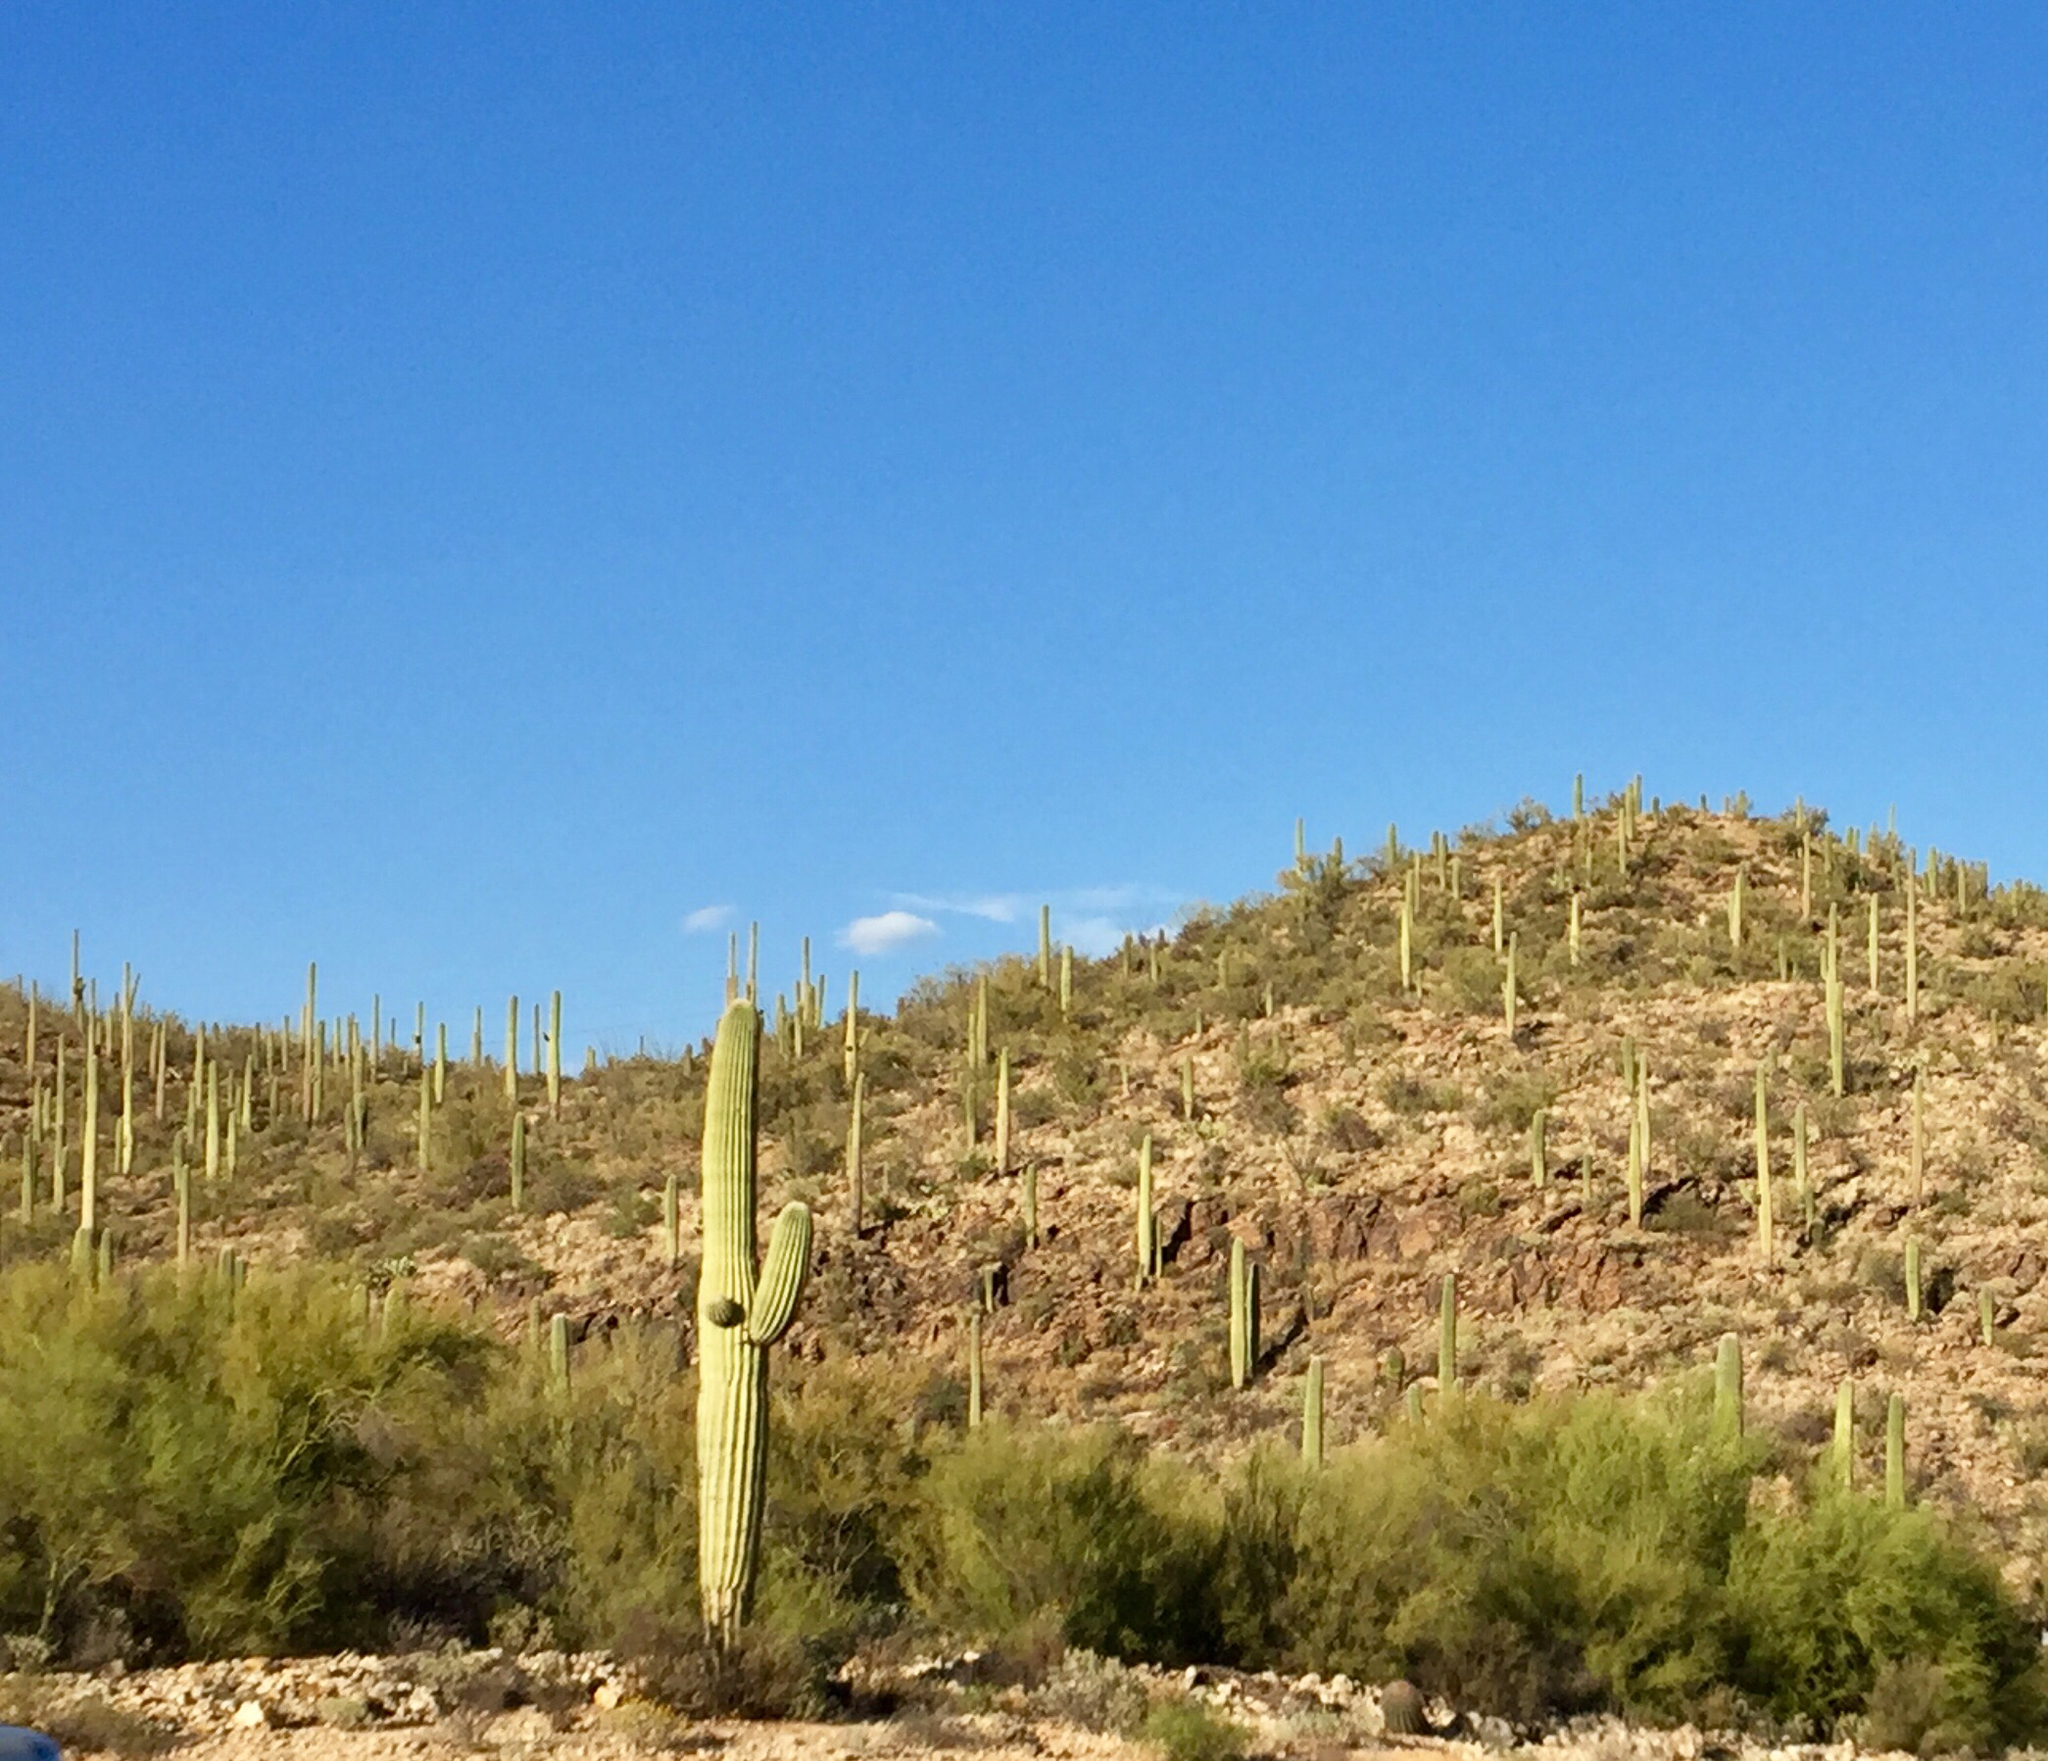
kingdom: Plantae
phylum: Tracheophyta
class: Magnoliopsida
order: Caryophyllales
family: Cactaceae
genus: Carnegiea
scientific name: Carnegiea gigantea
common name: Saguaro
